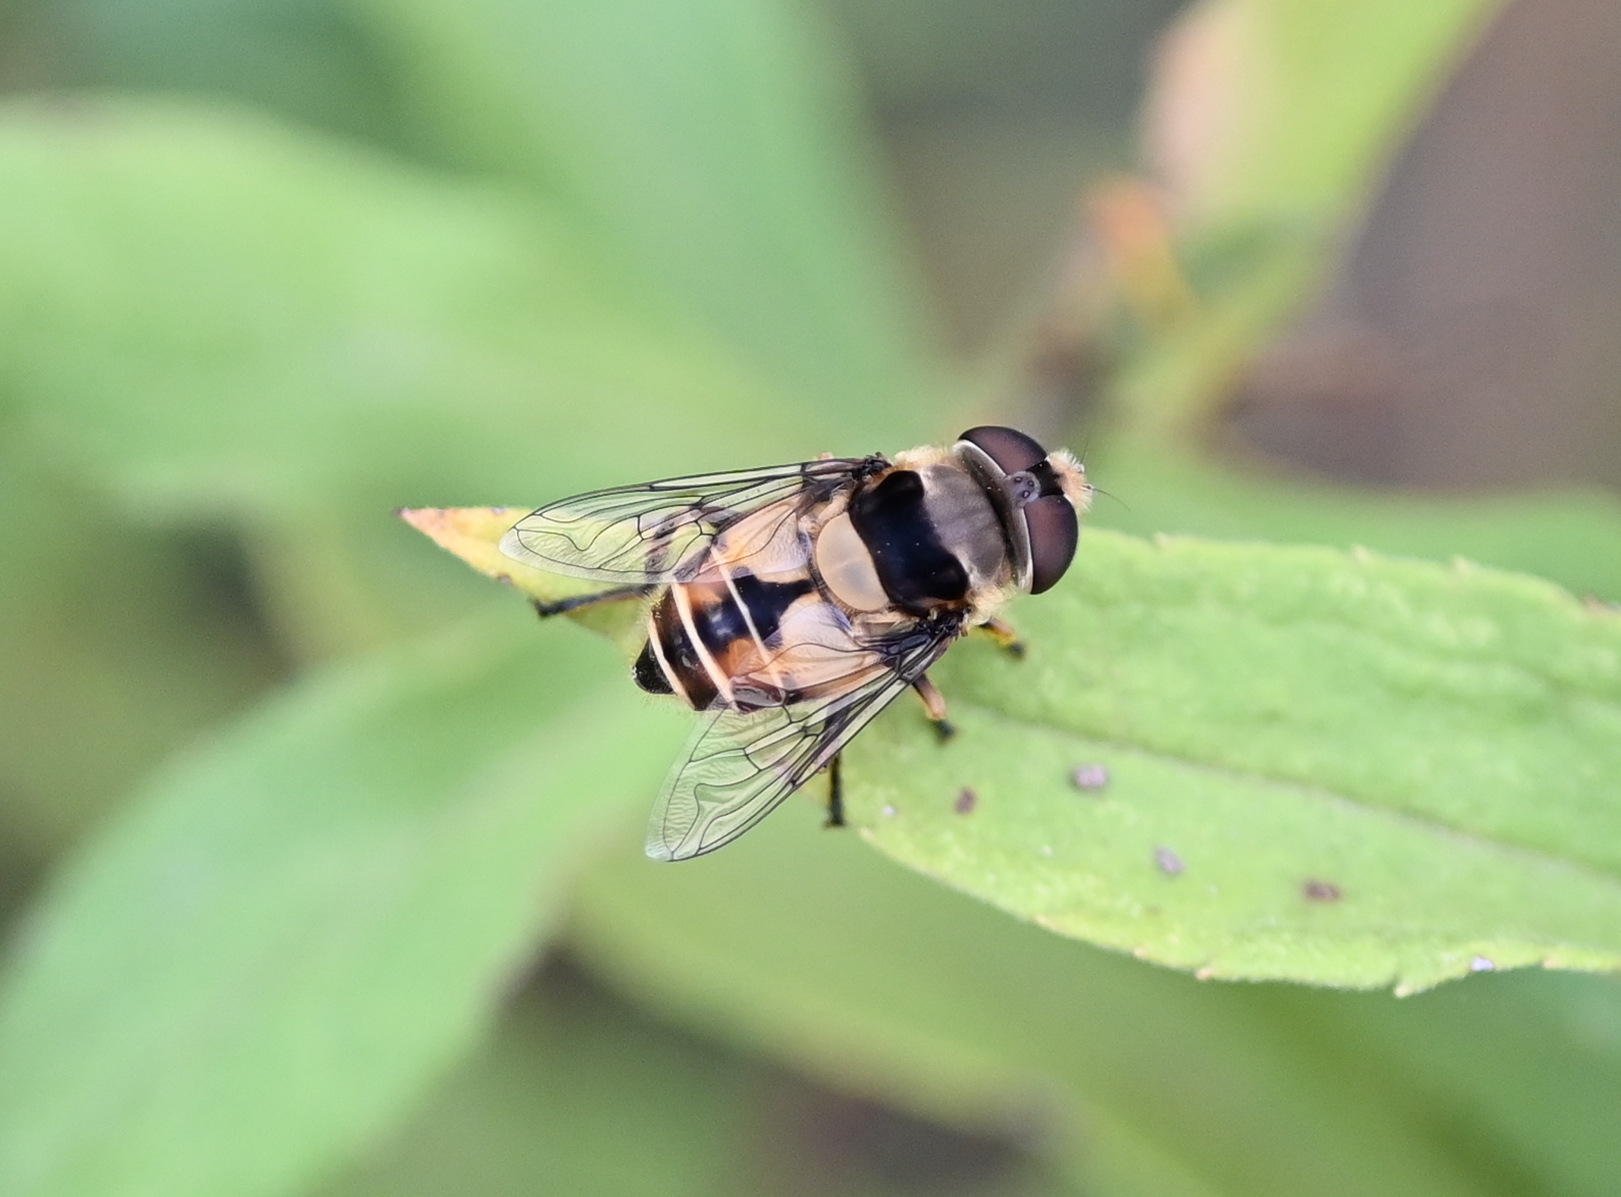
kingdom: Animalia
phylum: Arthropoda
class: Insecta
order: Diptera
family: Syrphidae
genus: Palpada
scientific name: Palpada pusilla
